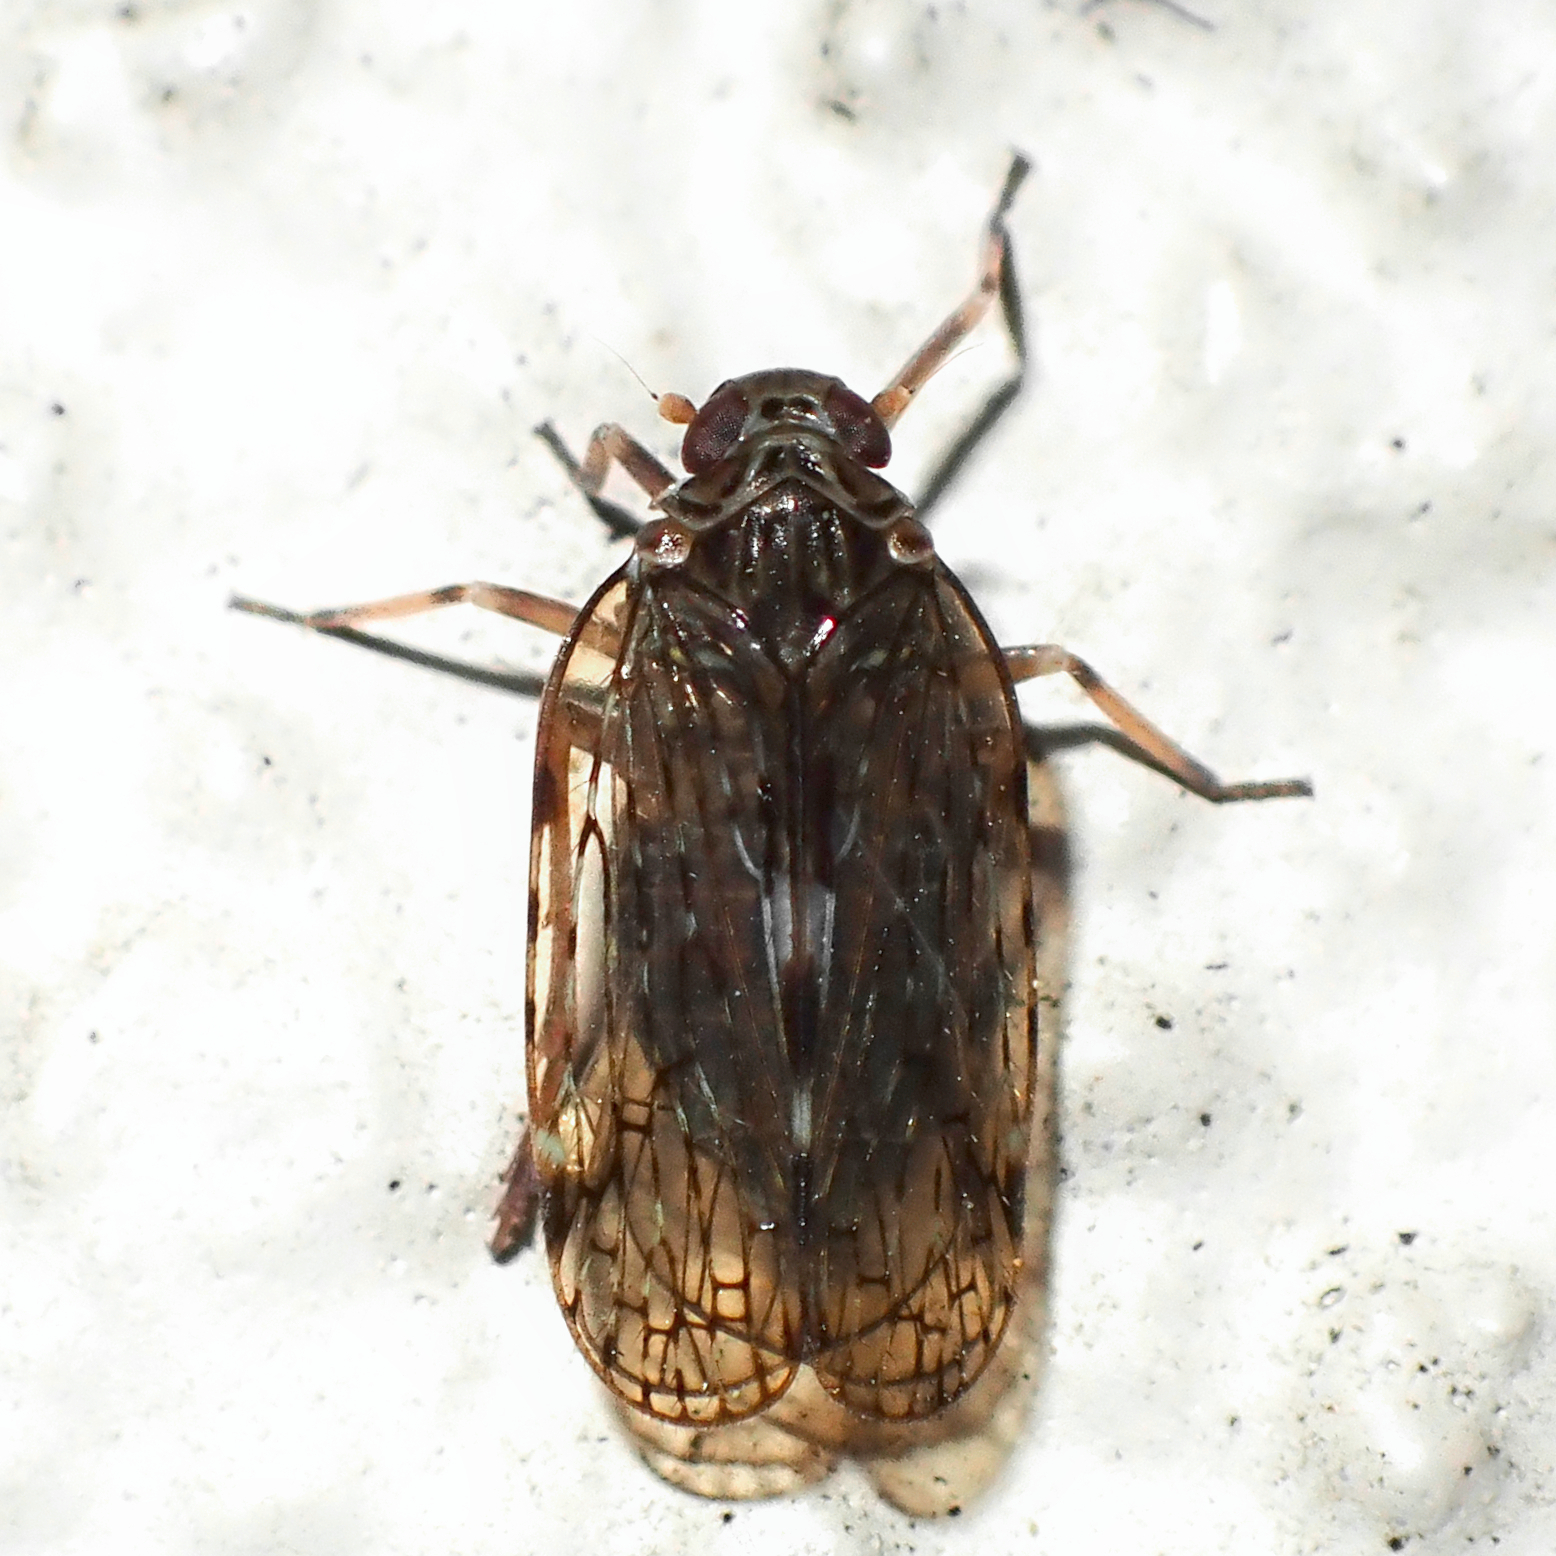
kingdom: Animalia
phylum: Arthropoda
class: Insecta
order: Hemiptera
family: Cixiidae
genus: Huttia
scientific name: Huttia nigrifons
